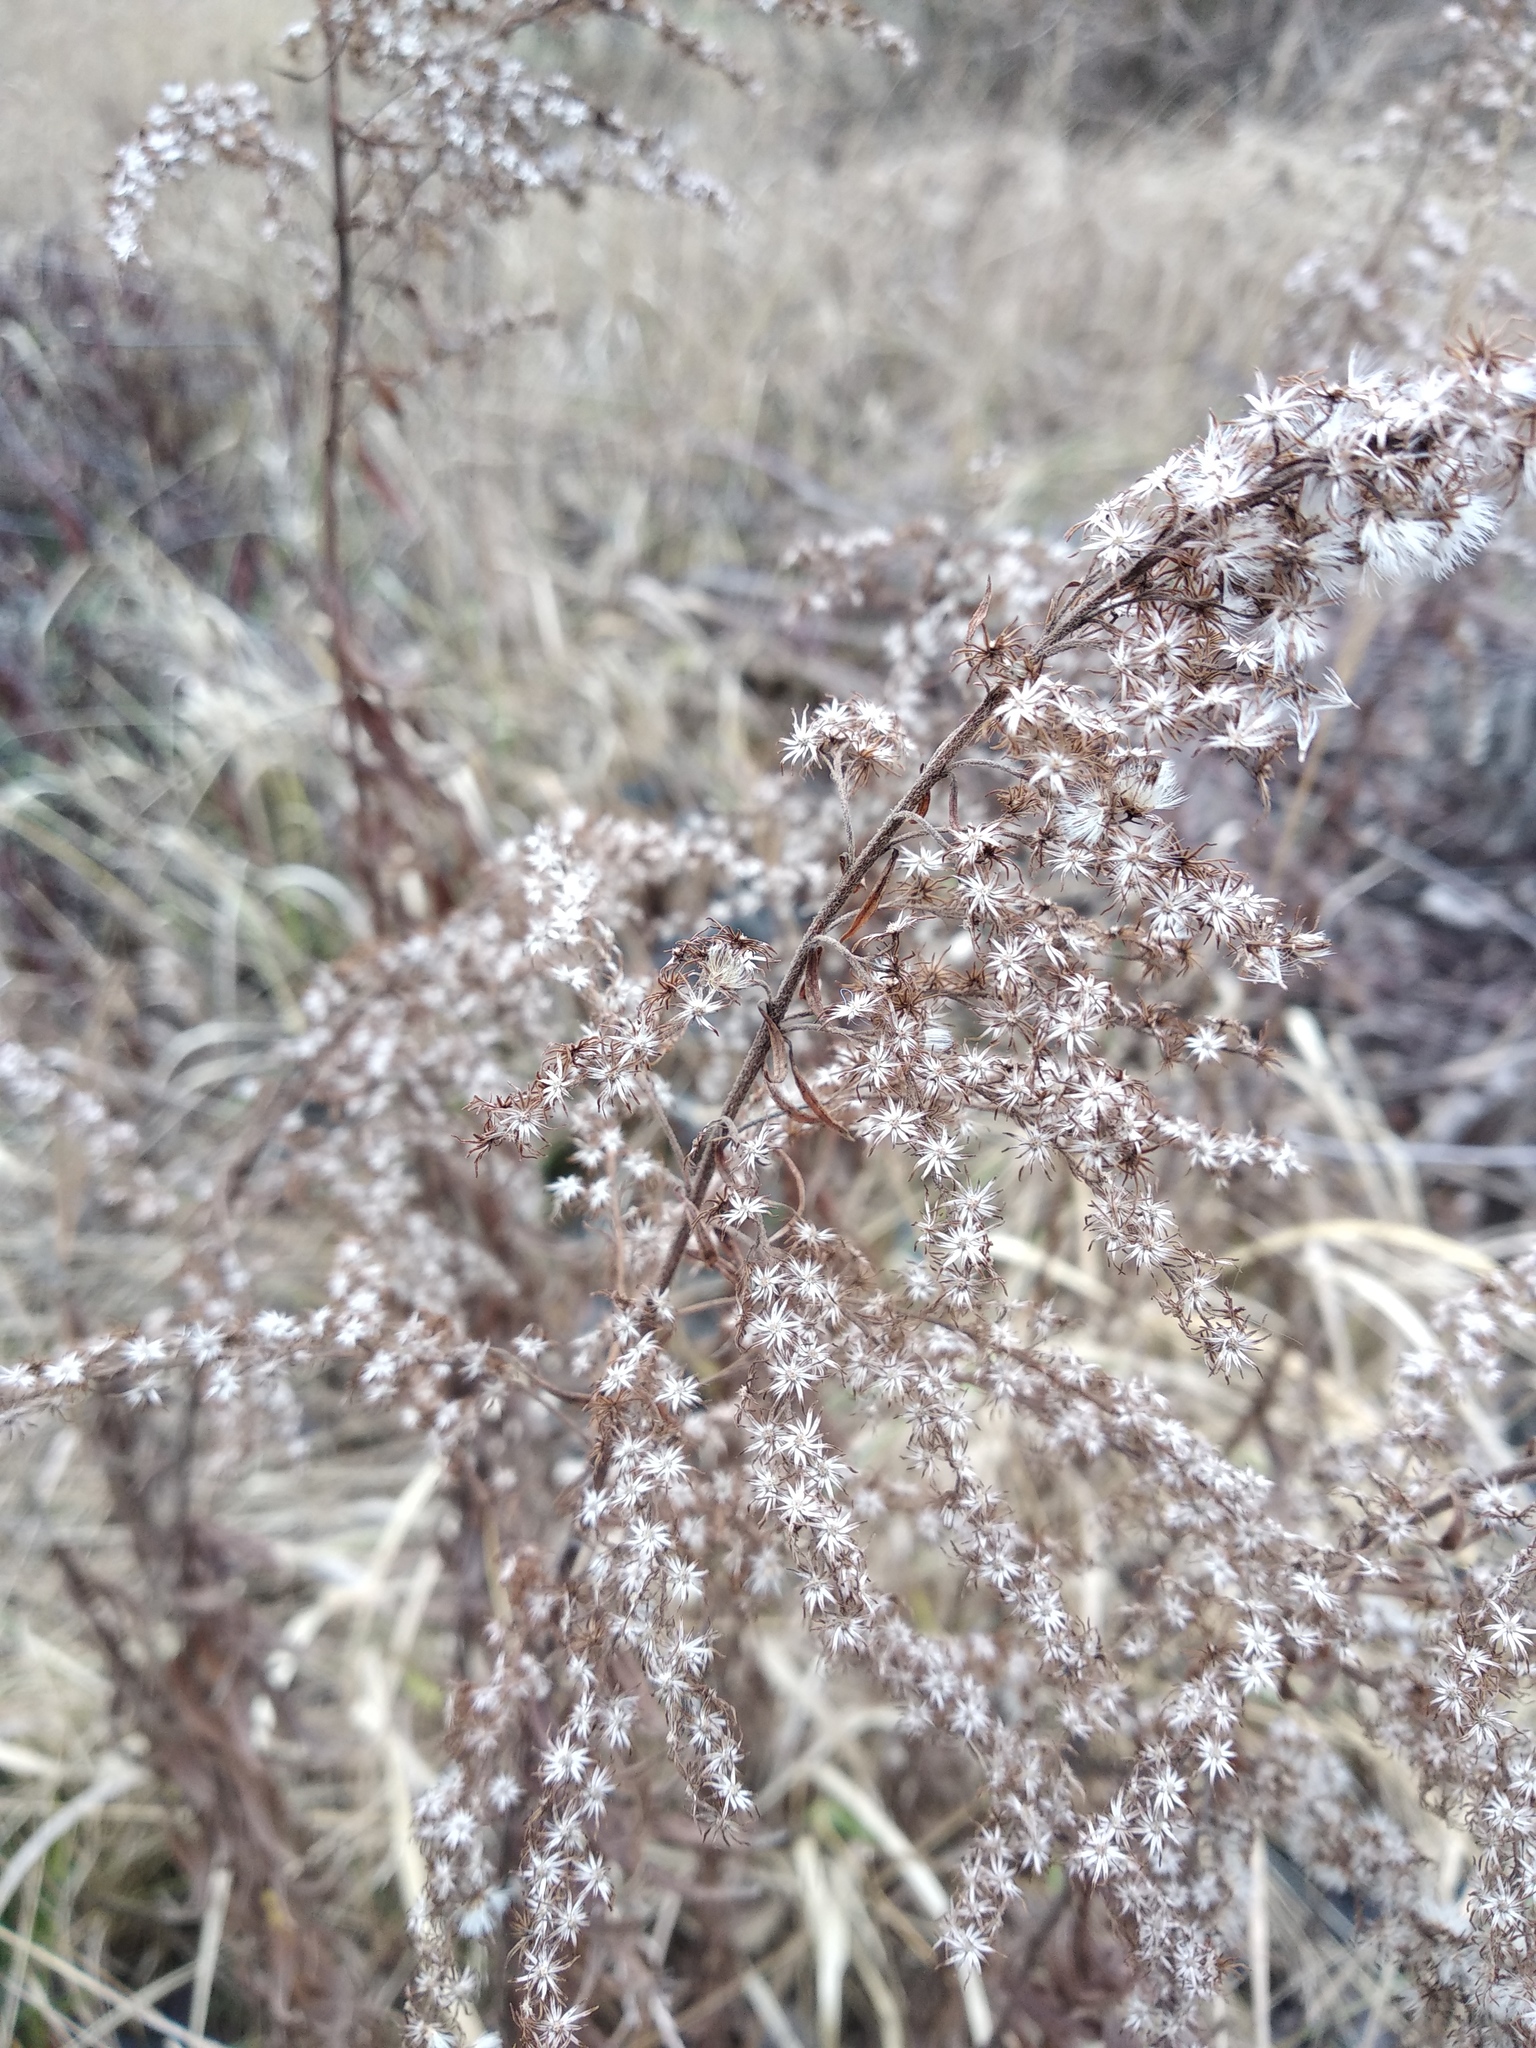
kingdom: Plantae
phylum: Tracheophyta
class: Magnoliopsida
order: Asterales
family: Asteraceae
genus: Solidago
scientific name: Solidago canadensis
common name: Canada goldenrod
